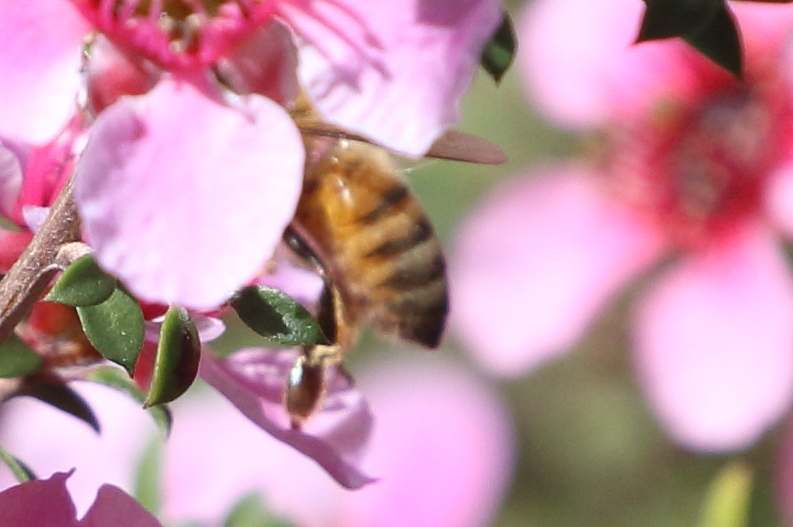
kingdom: Animalia
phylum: Arthropoda
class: Insecta
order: Hymenoptera
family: Apidae
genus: Apis
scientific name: Apis mellifera
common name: Honey bee
